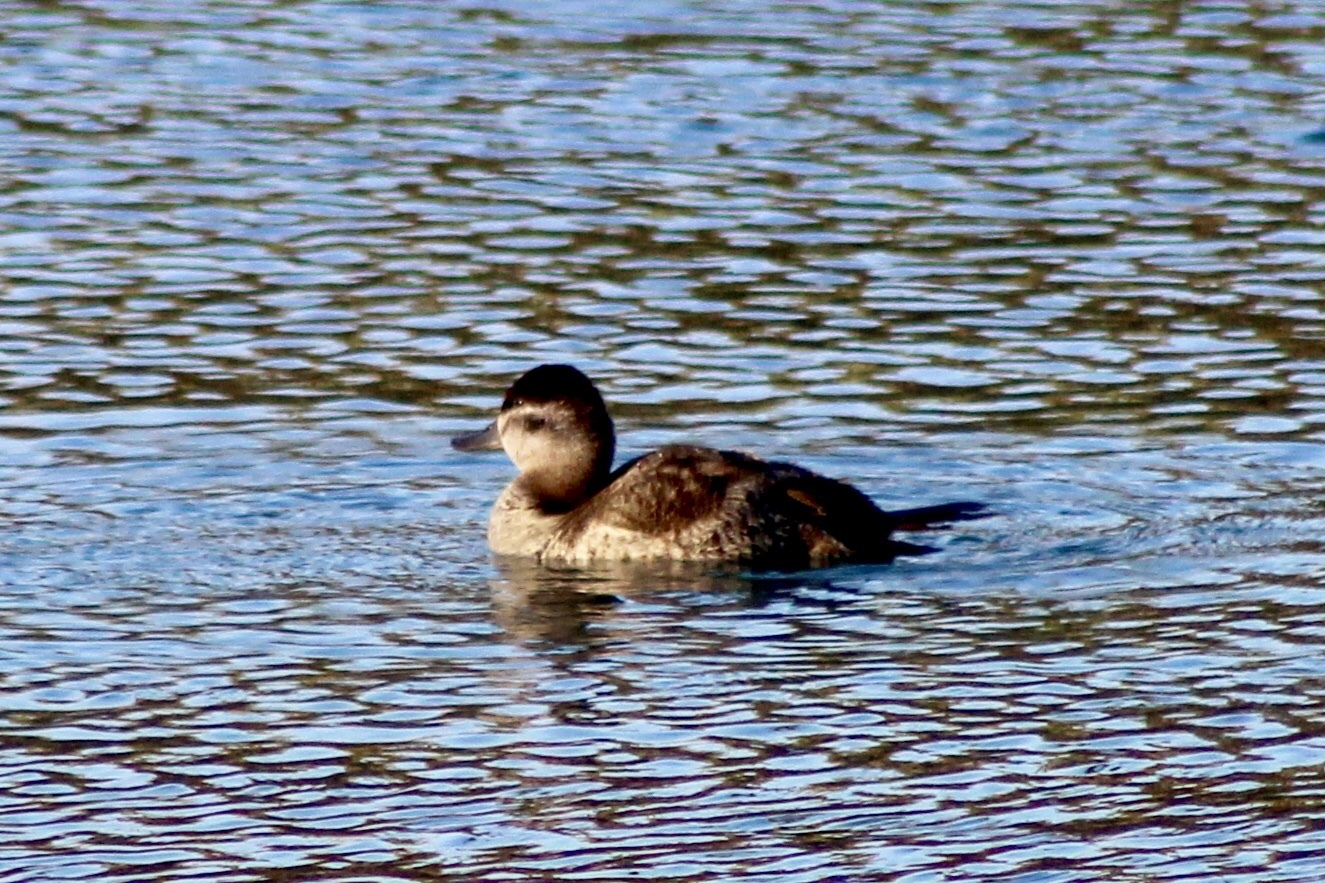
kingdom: Animalia
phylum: Chordata
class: Aves
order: Anseriformes
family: Anatidae
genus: Oxyura
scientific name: Oxyura jamaicensis
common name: Ruddy duck
